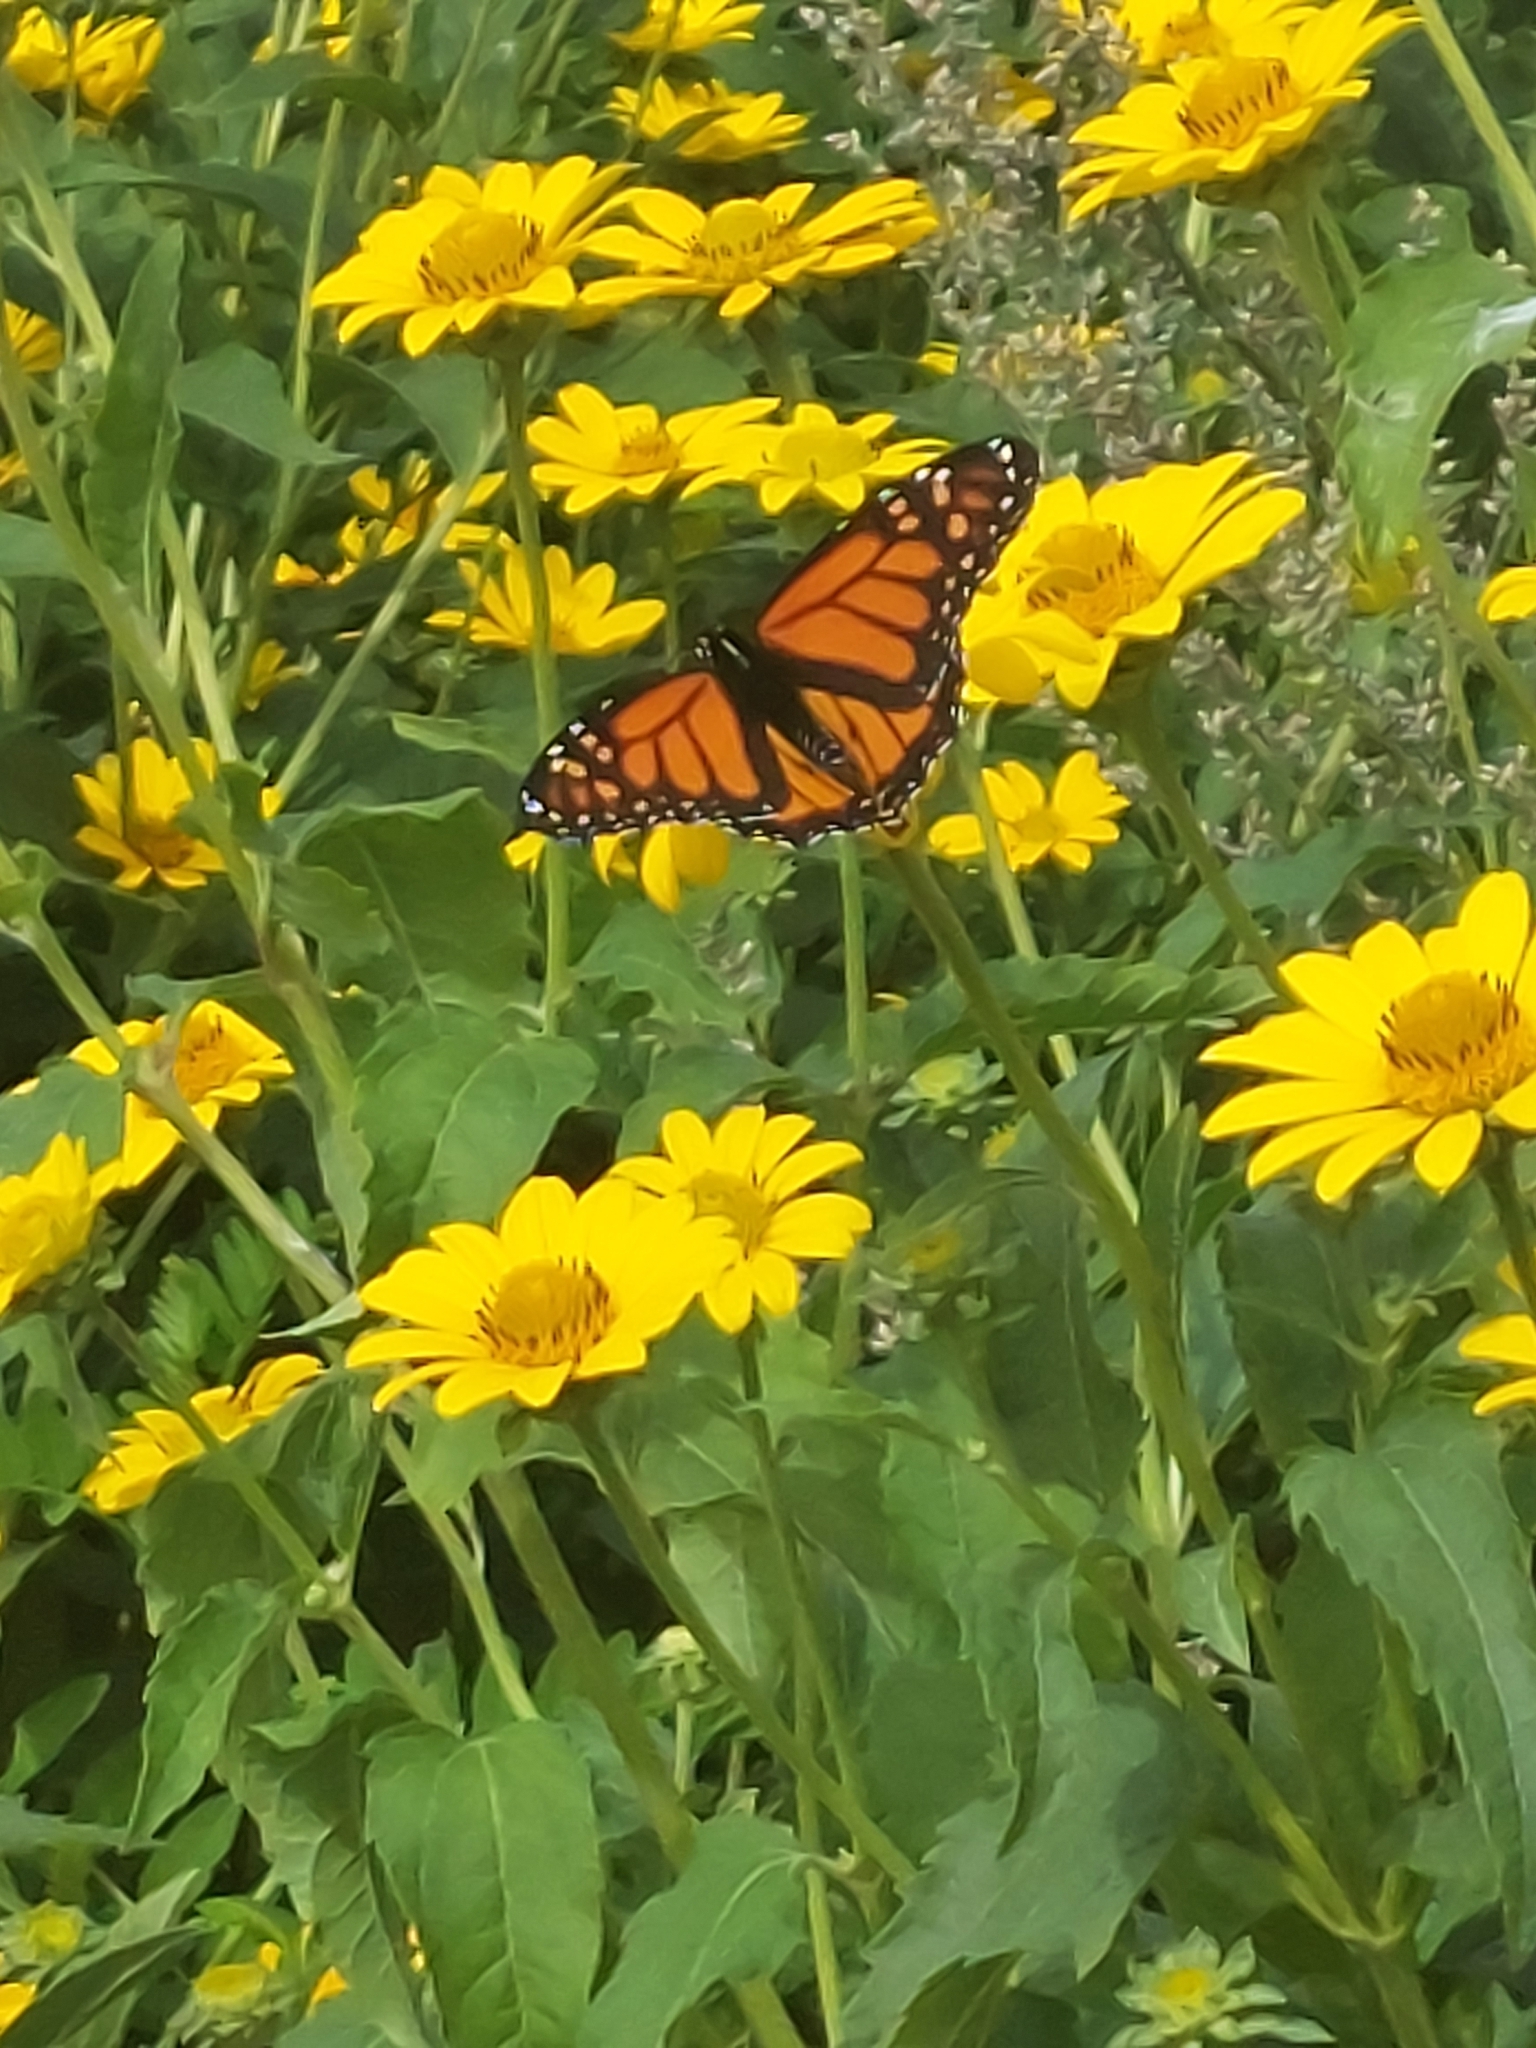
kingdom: Animalia
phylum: Arthropoda
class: Insecta
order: Lepidoptera
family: Nymphalidae
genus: Danaus
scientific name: Danaus plexippus
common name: Monarch
